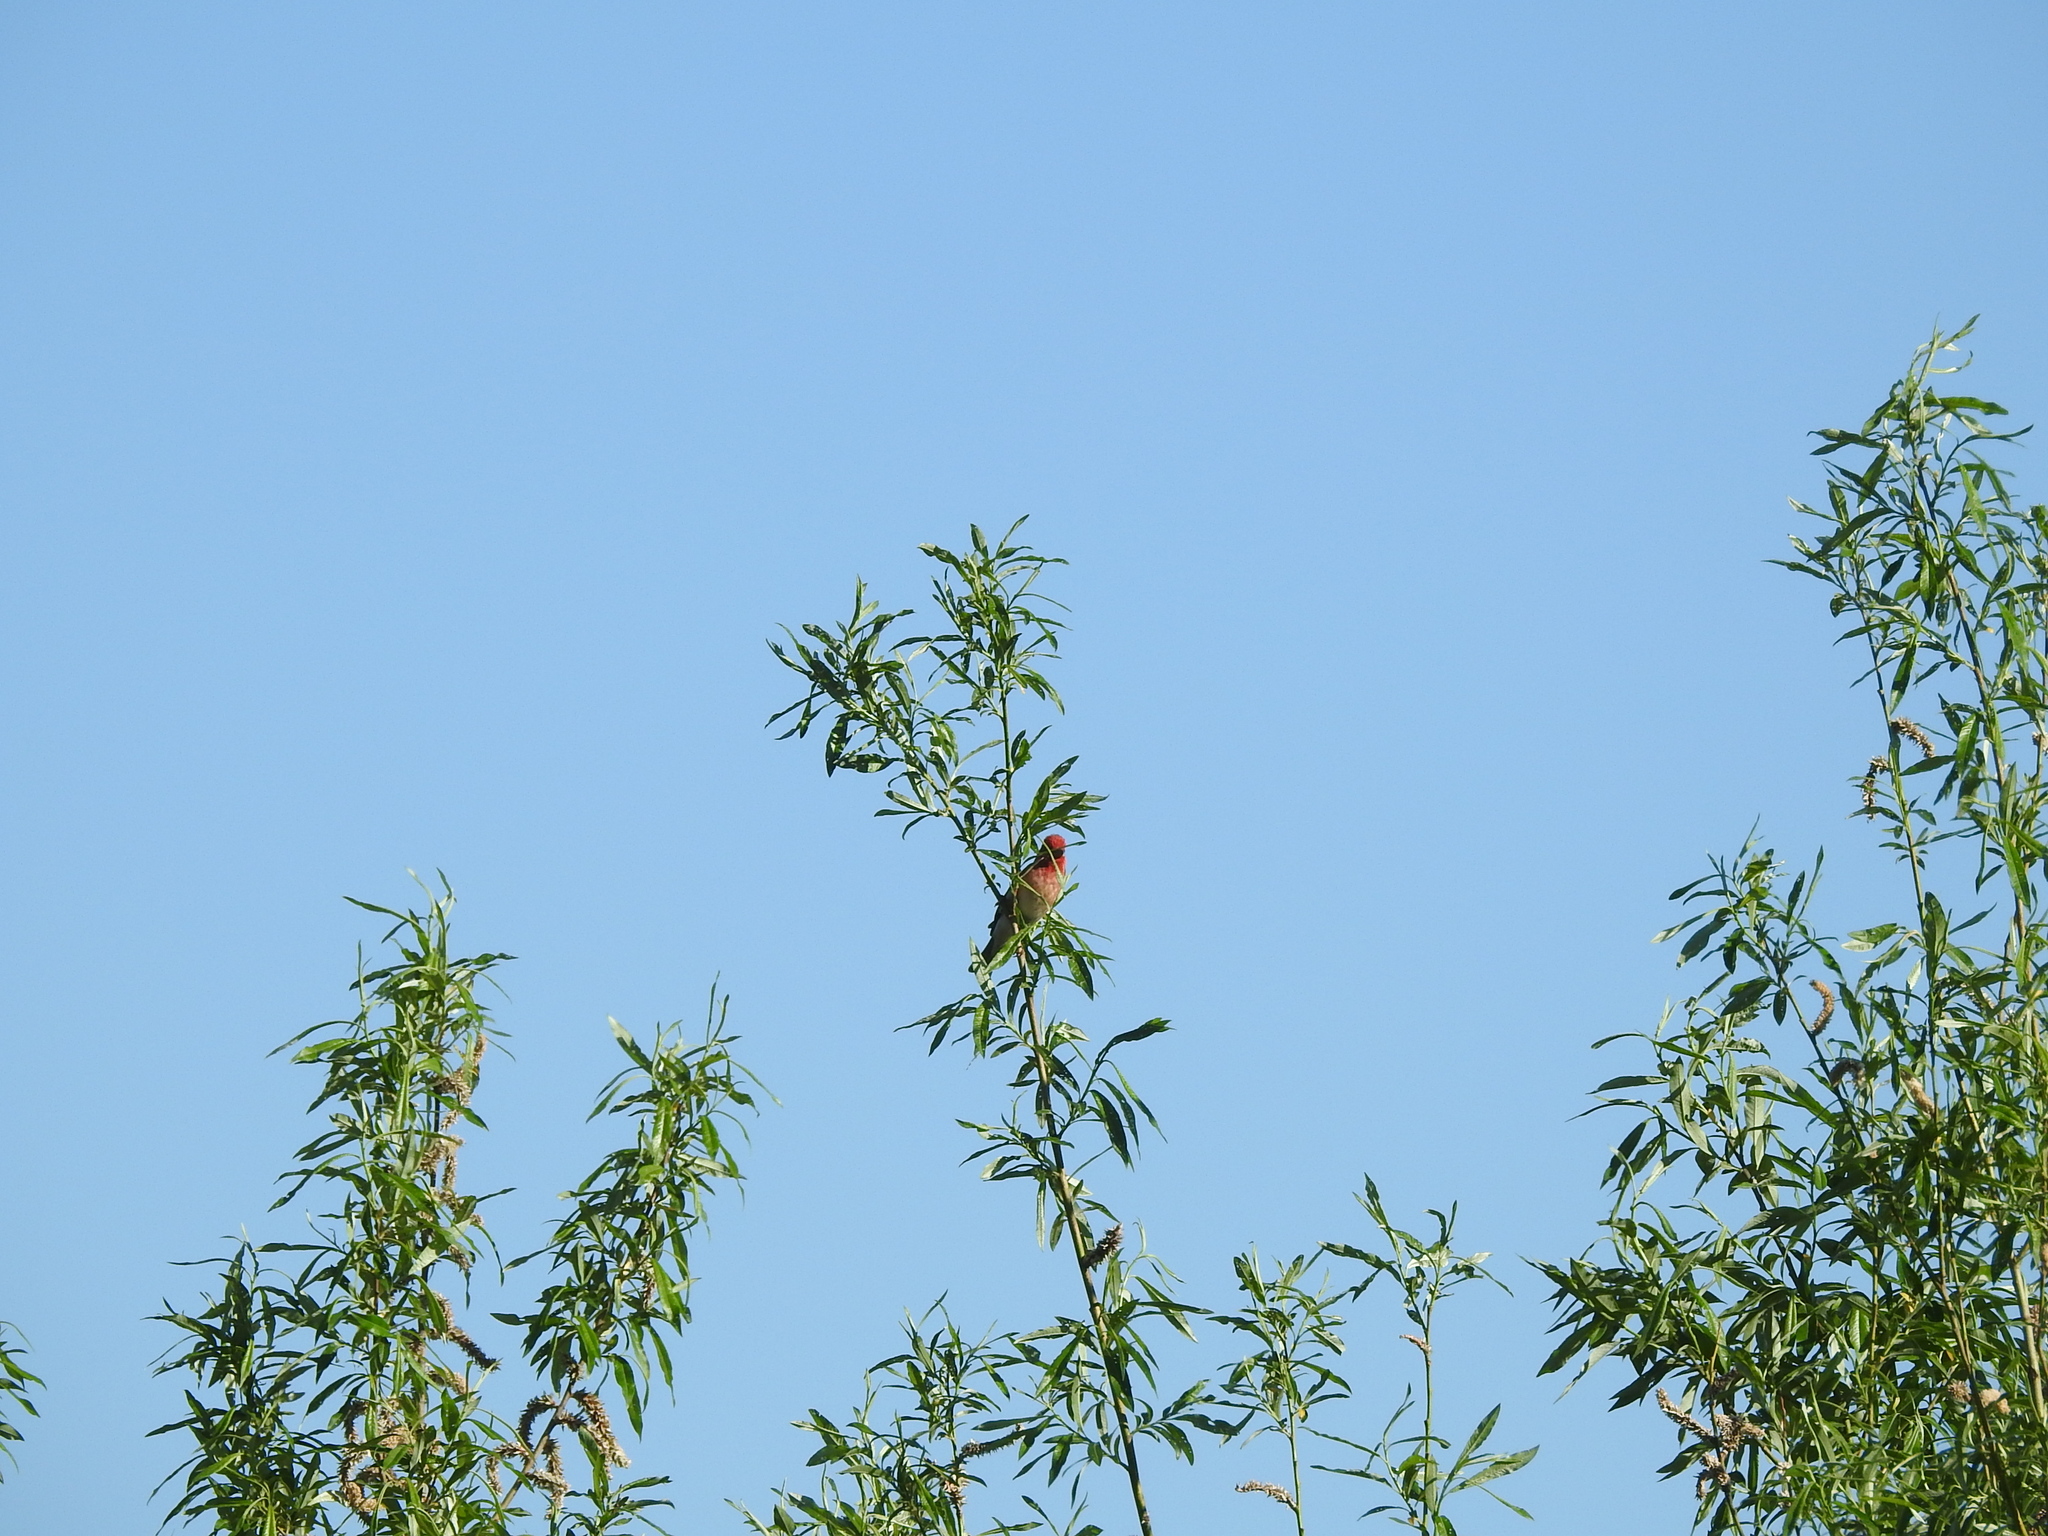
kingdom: Animalia
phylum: Chordata
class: Aves
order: Passeriformes
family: Fringillidae
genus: Carpodacus
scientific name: Carpodacus erythrinus
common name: Common rosefinch
